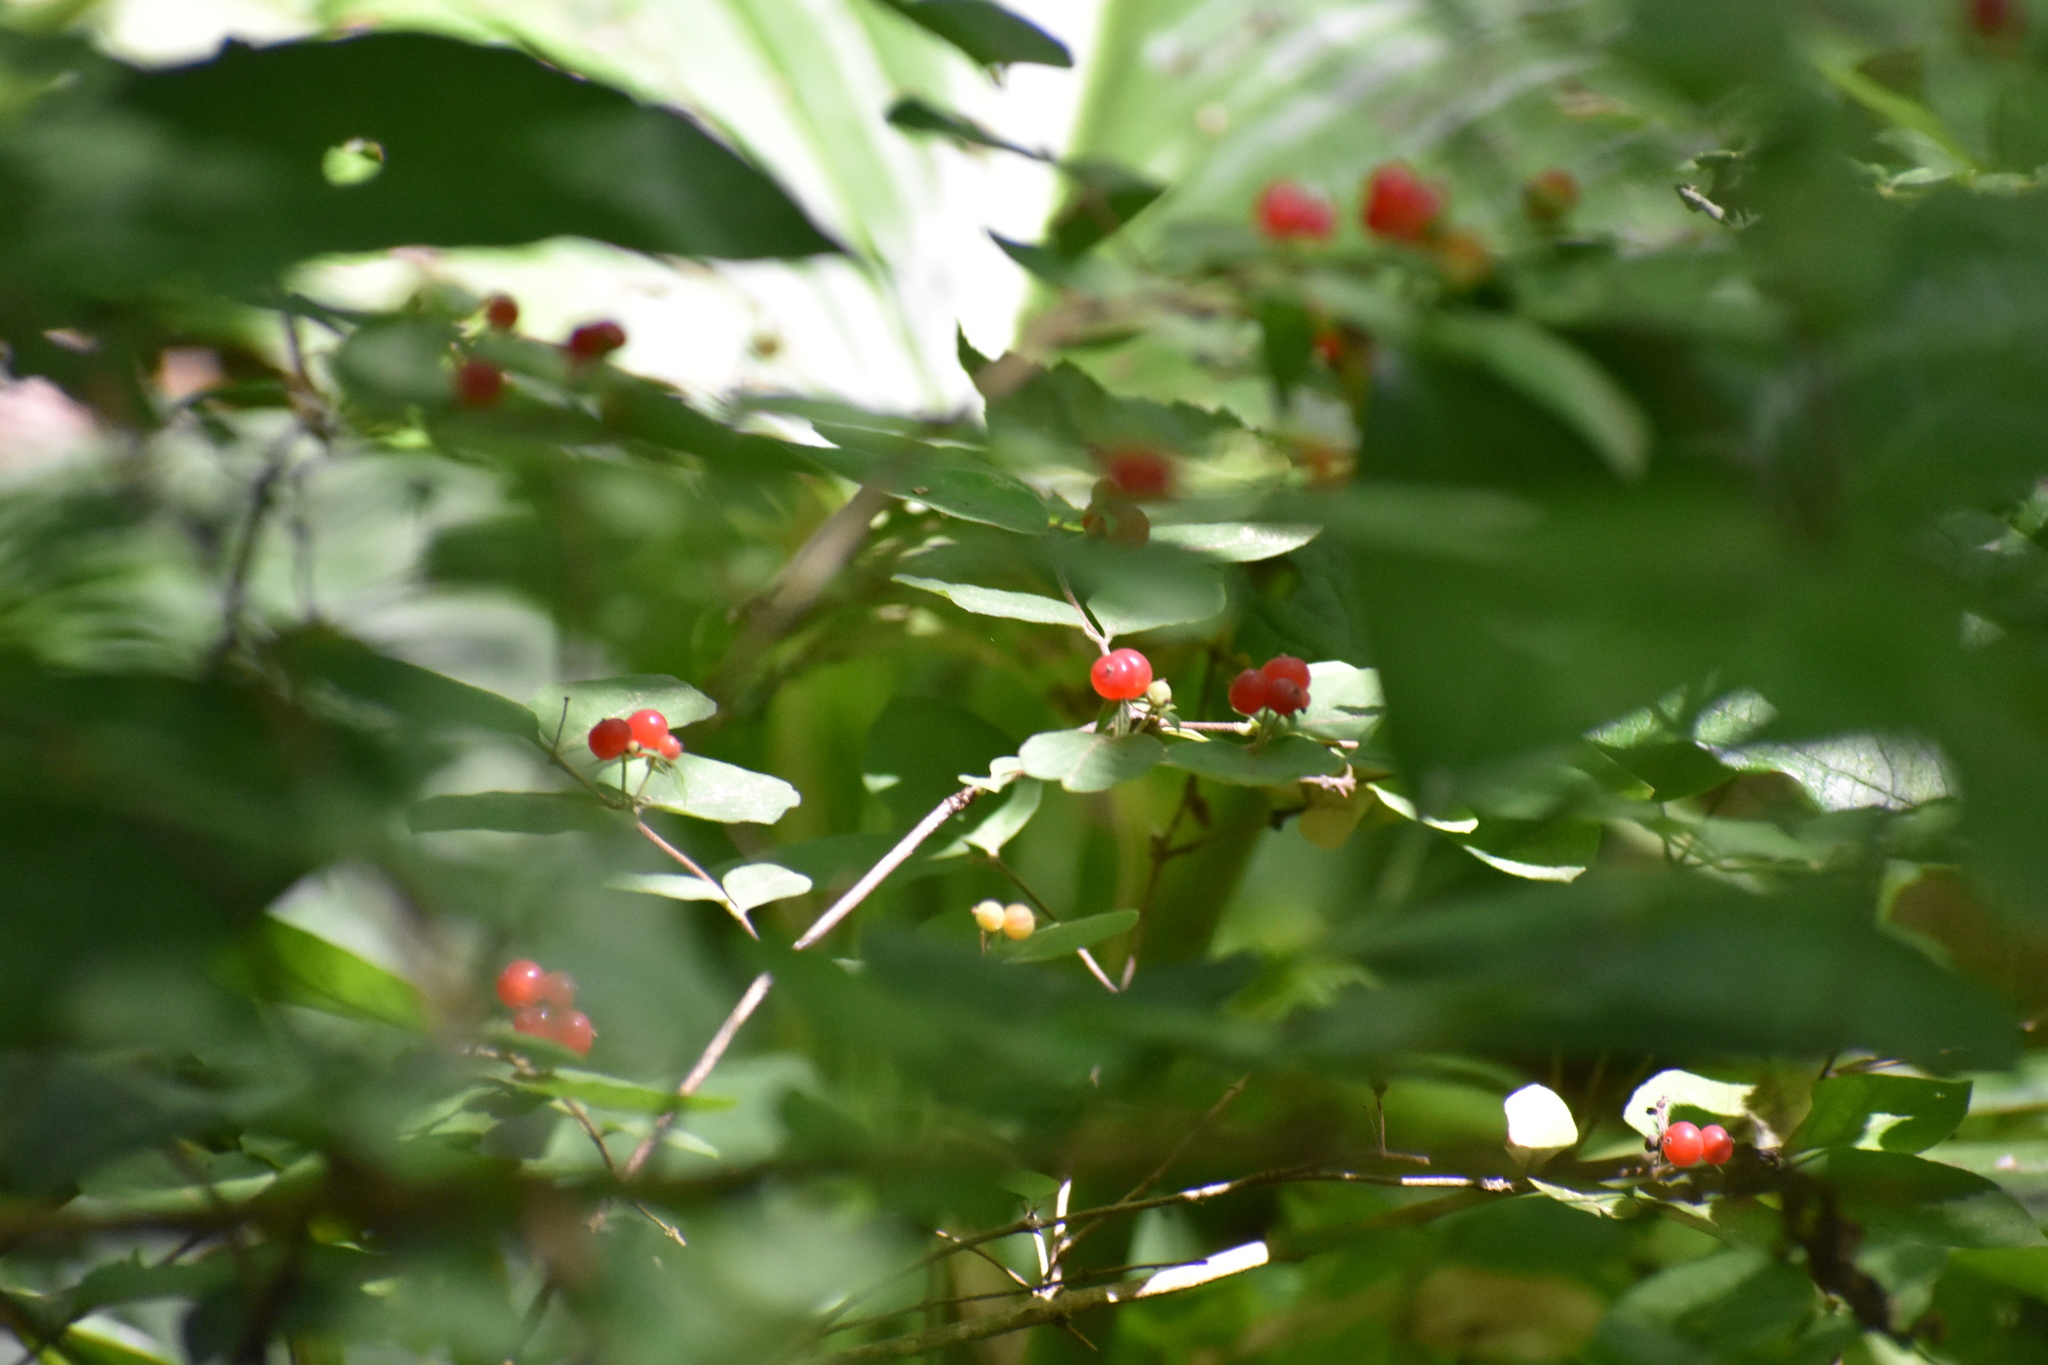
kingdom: Plantae
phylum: Tracheophyta
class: Magnoliopsida
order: Dipsacales
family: Caprifoliaceae
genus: Lonicera
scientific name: Lonicera
